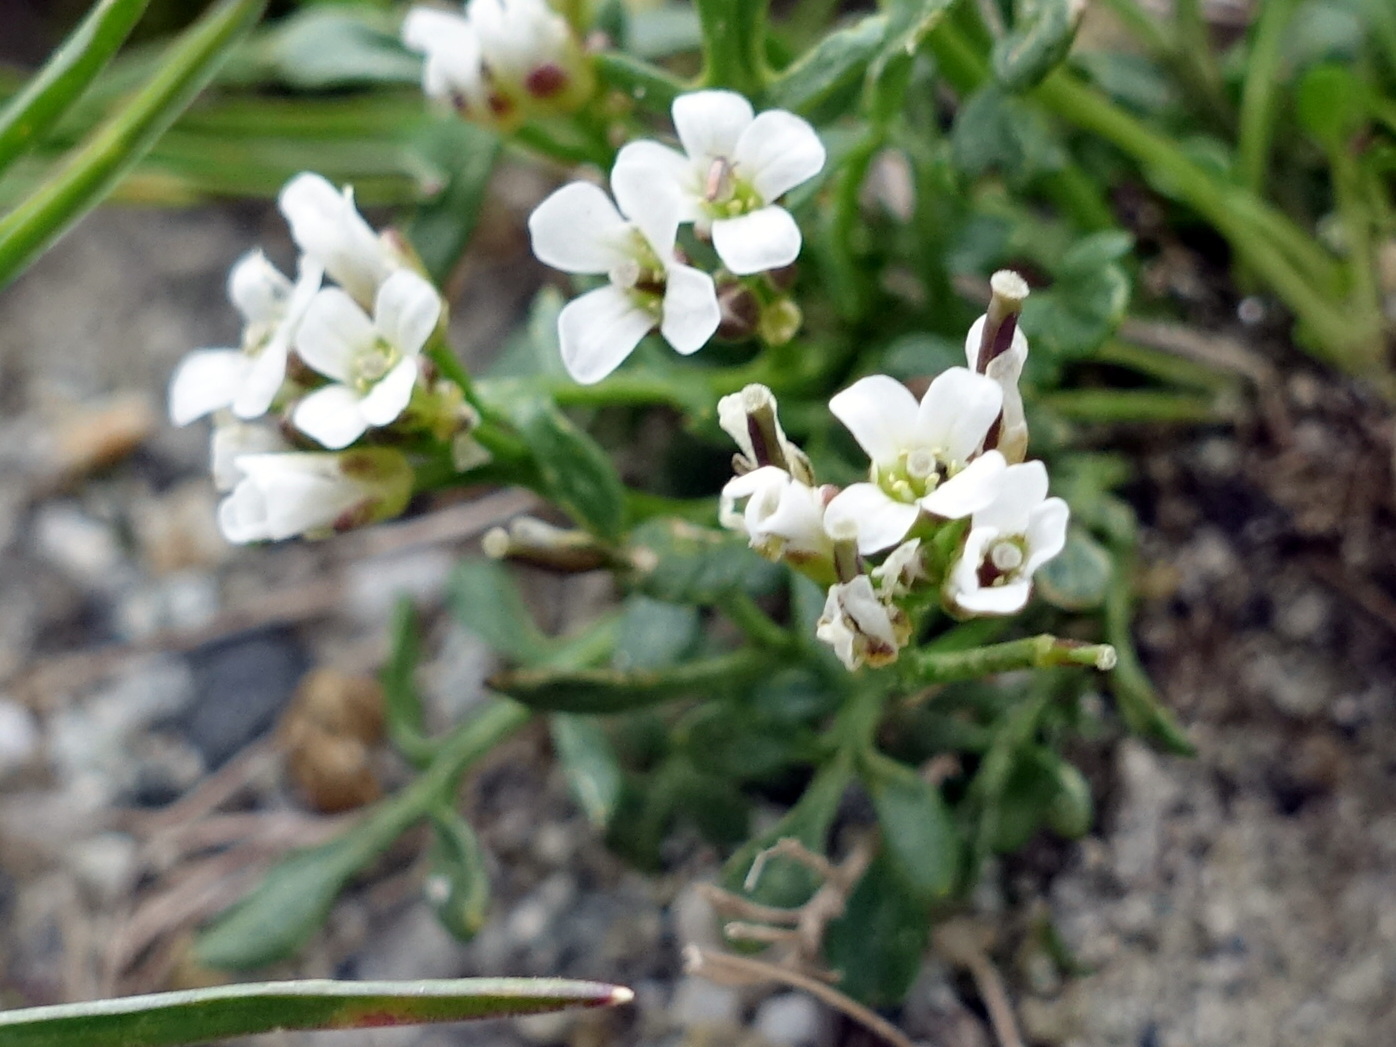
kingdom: Plantae
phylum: Tracheophyta
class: Magnoliopsida
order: Brassicales
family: Brassicaceae
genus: Cardamine
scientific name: Cardamine resedifolia
